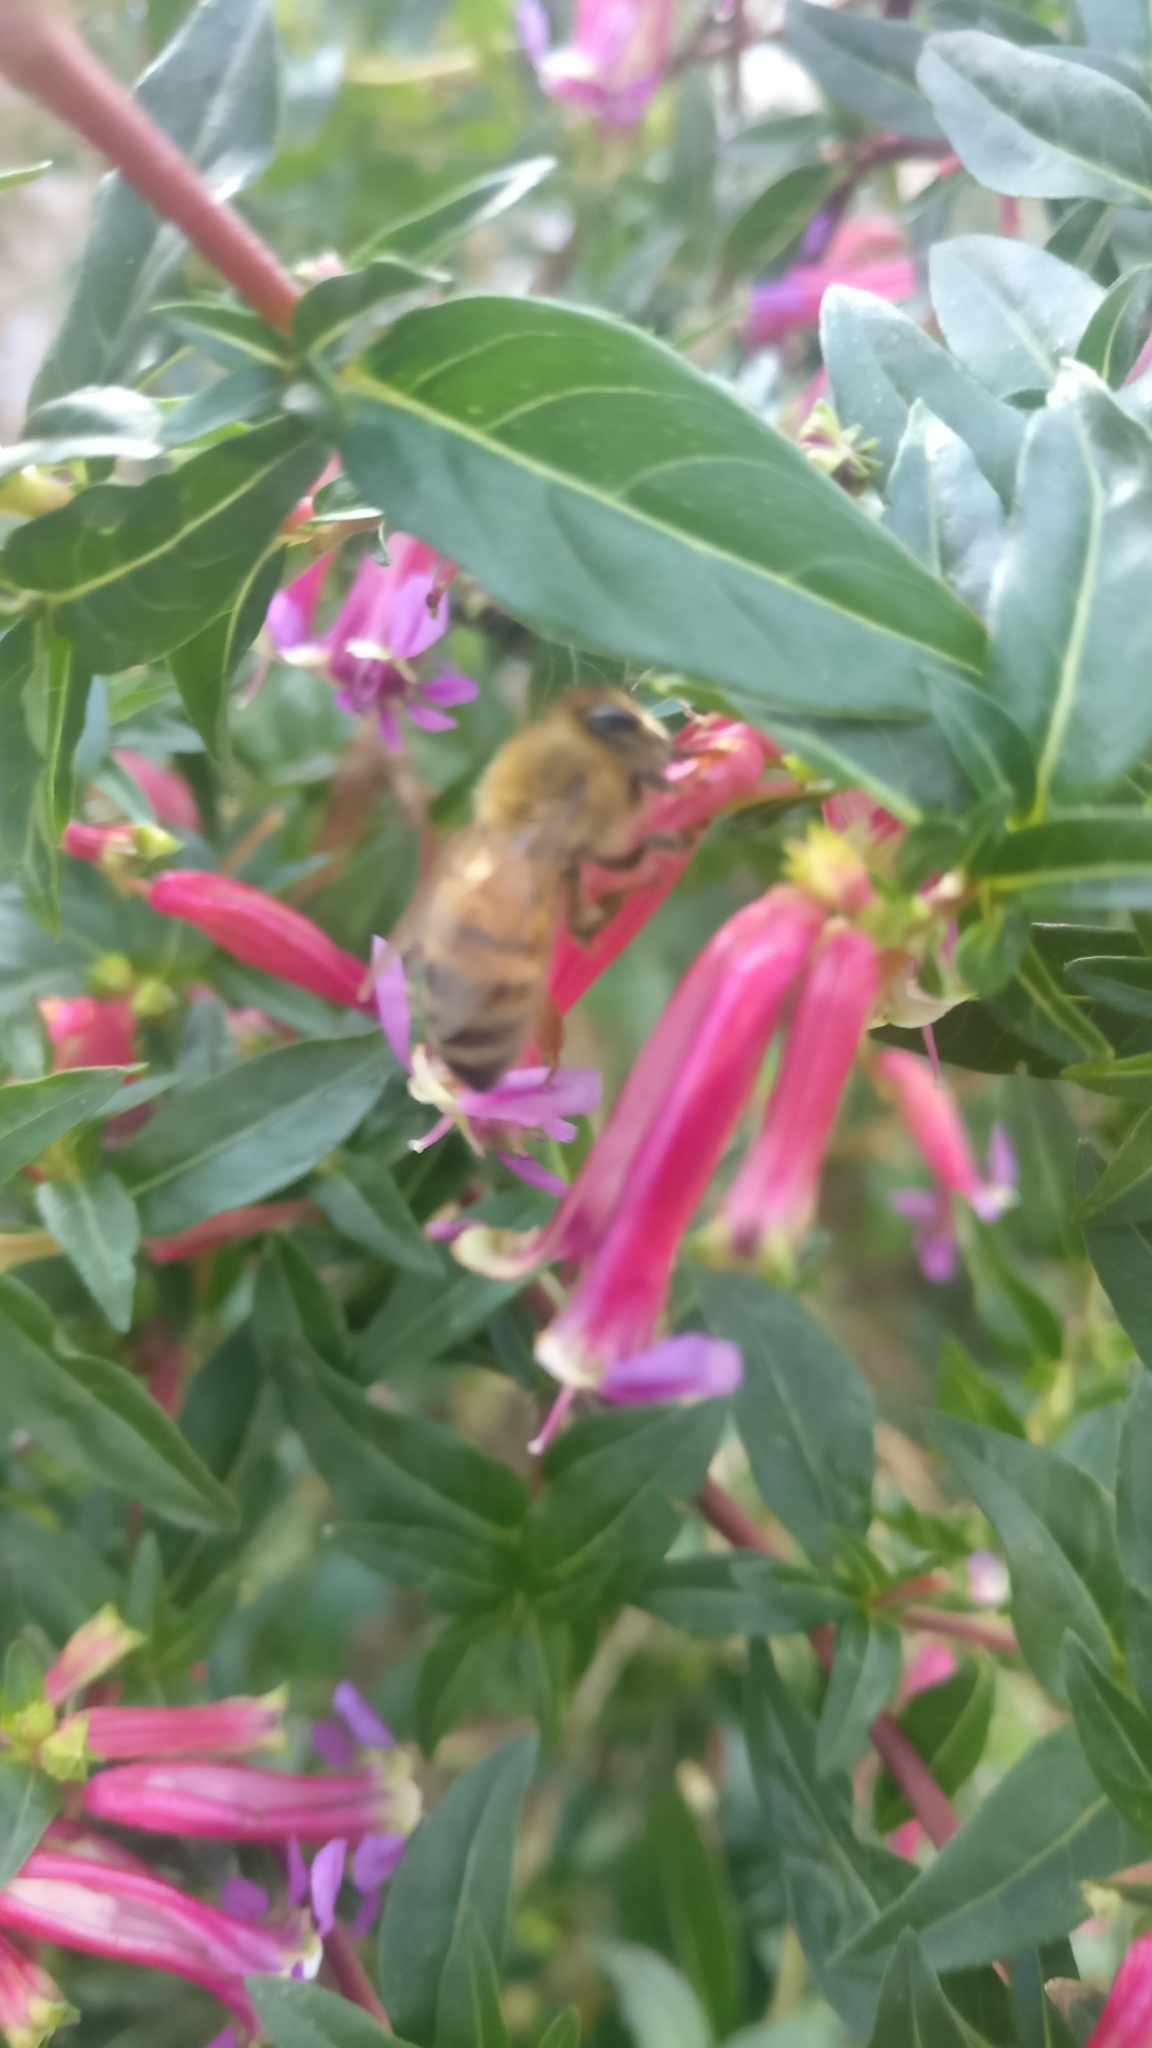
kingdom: Animalia
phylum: Arthropoda
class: Insecta
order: Hymenoptera
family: Apidae
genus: Apis
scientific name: Apis mellifera
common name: Honey bee
